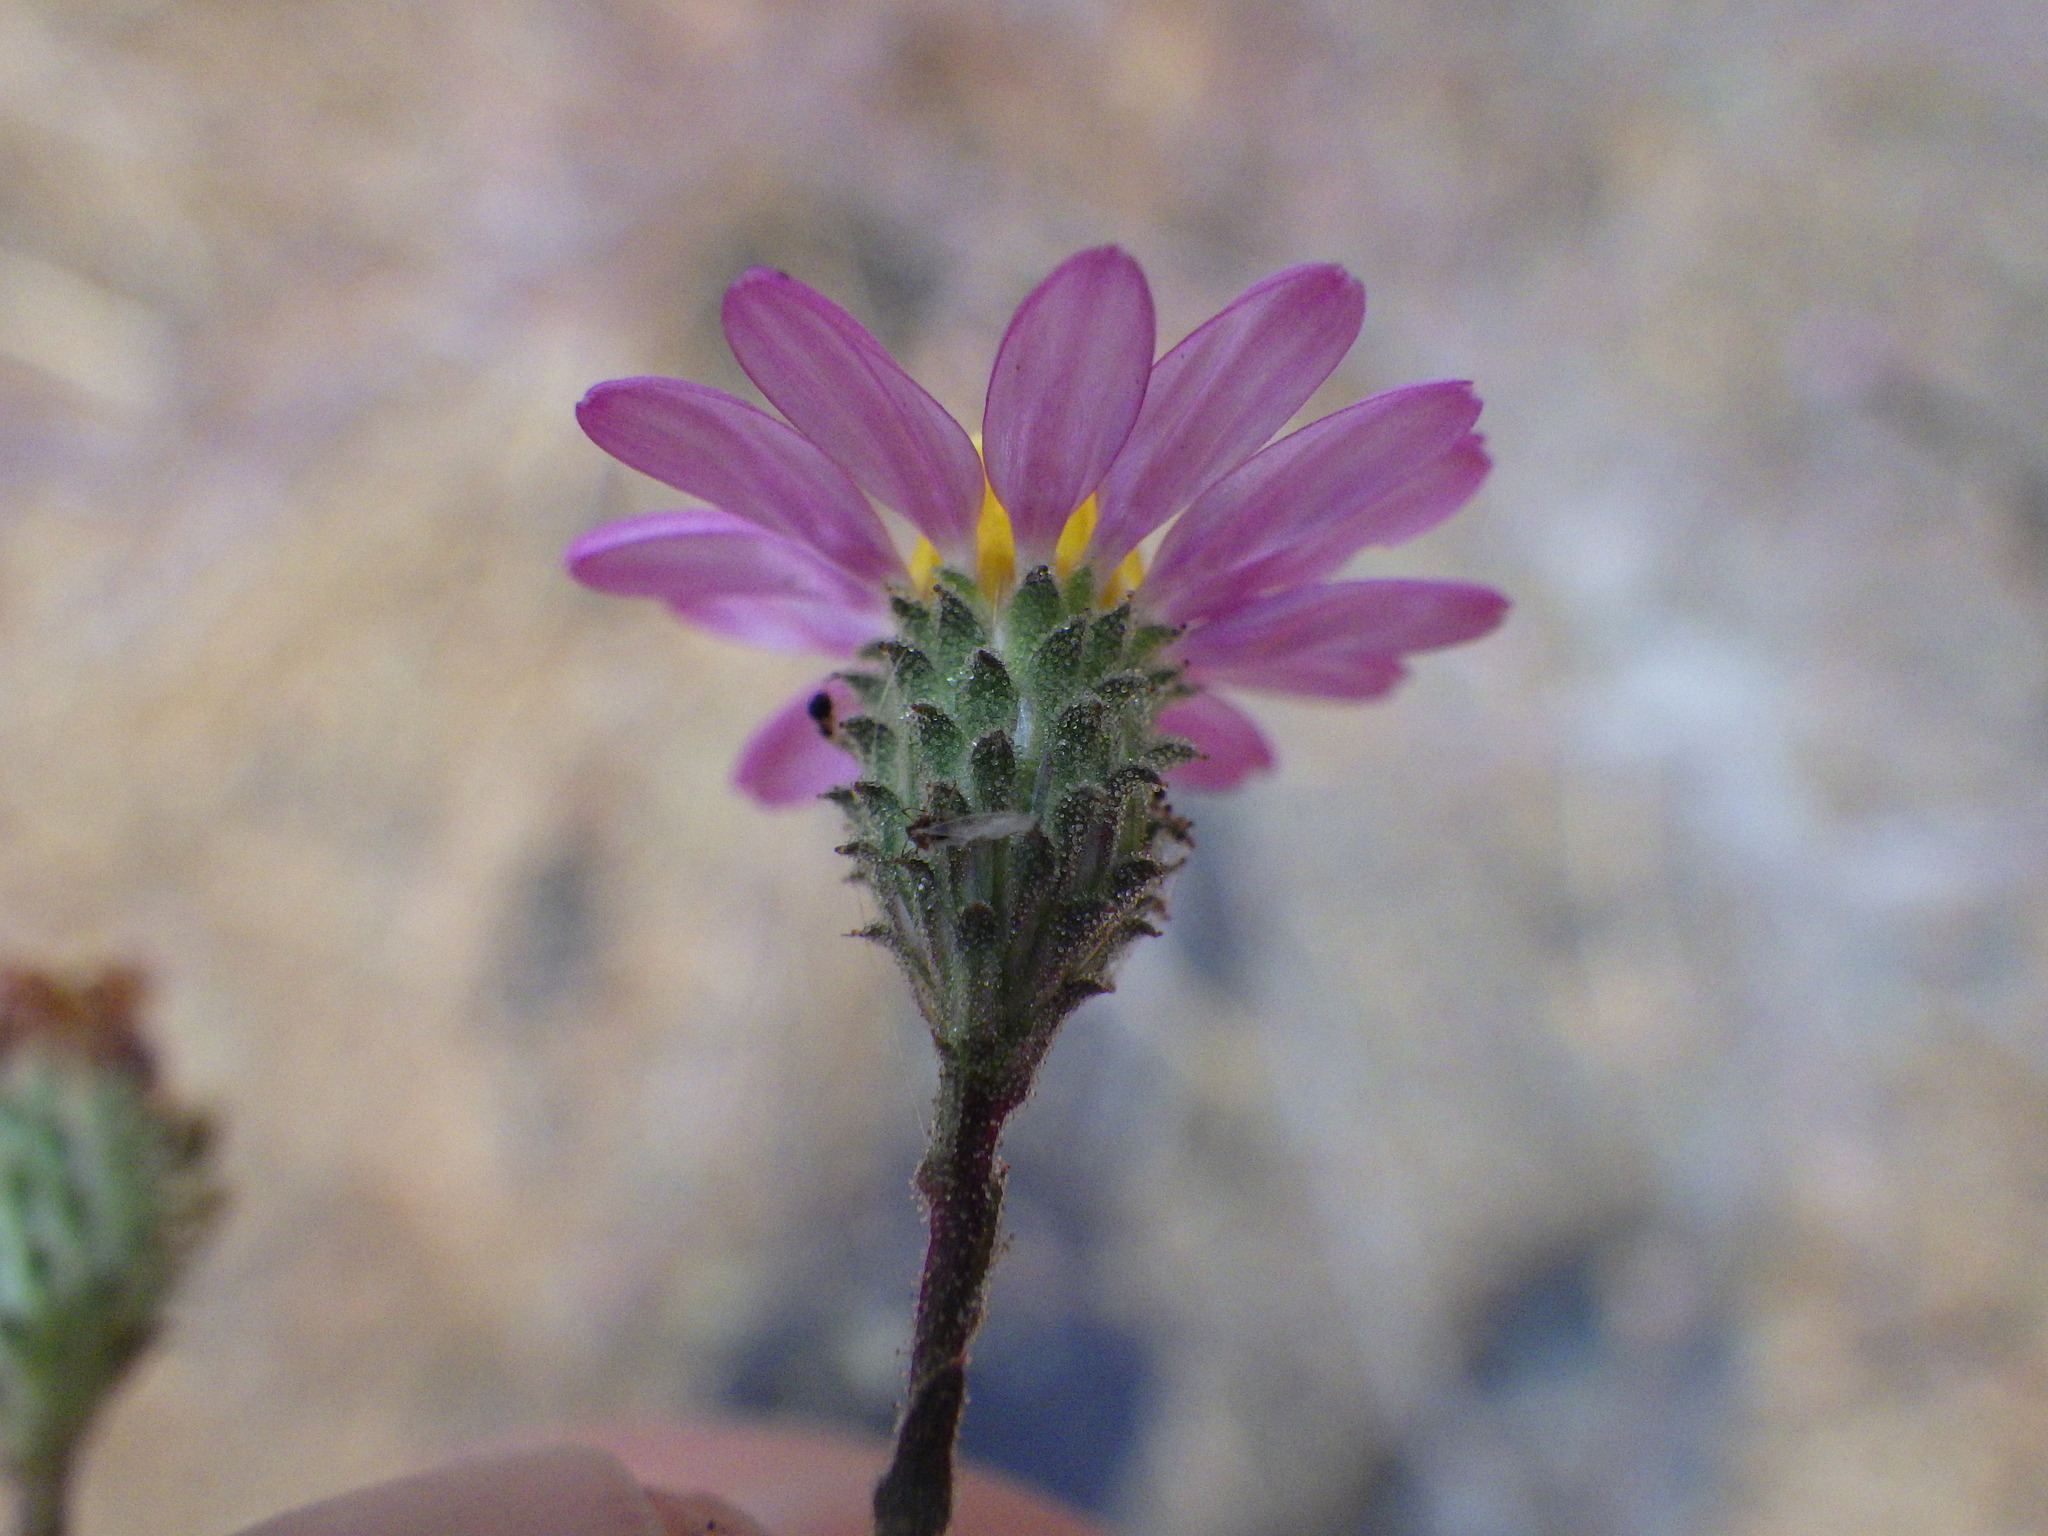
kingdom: Plantae
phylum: Tracheophyta
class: Magnoliopsida
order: Asterales
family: Asteraceae
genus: Corethrogyne
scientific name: Corethrogyne filaginifolia
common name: Sand-aster
